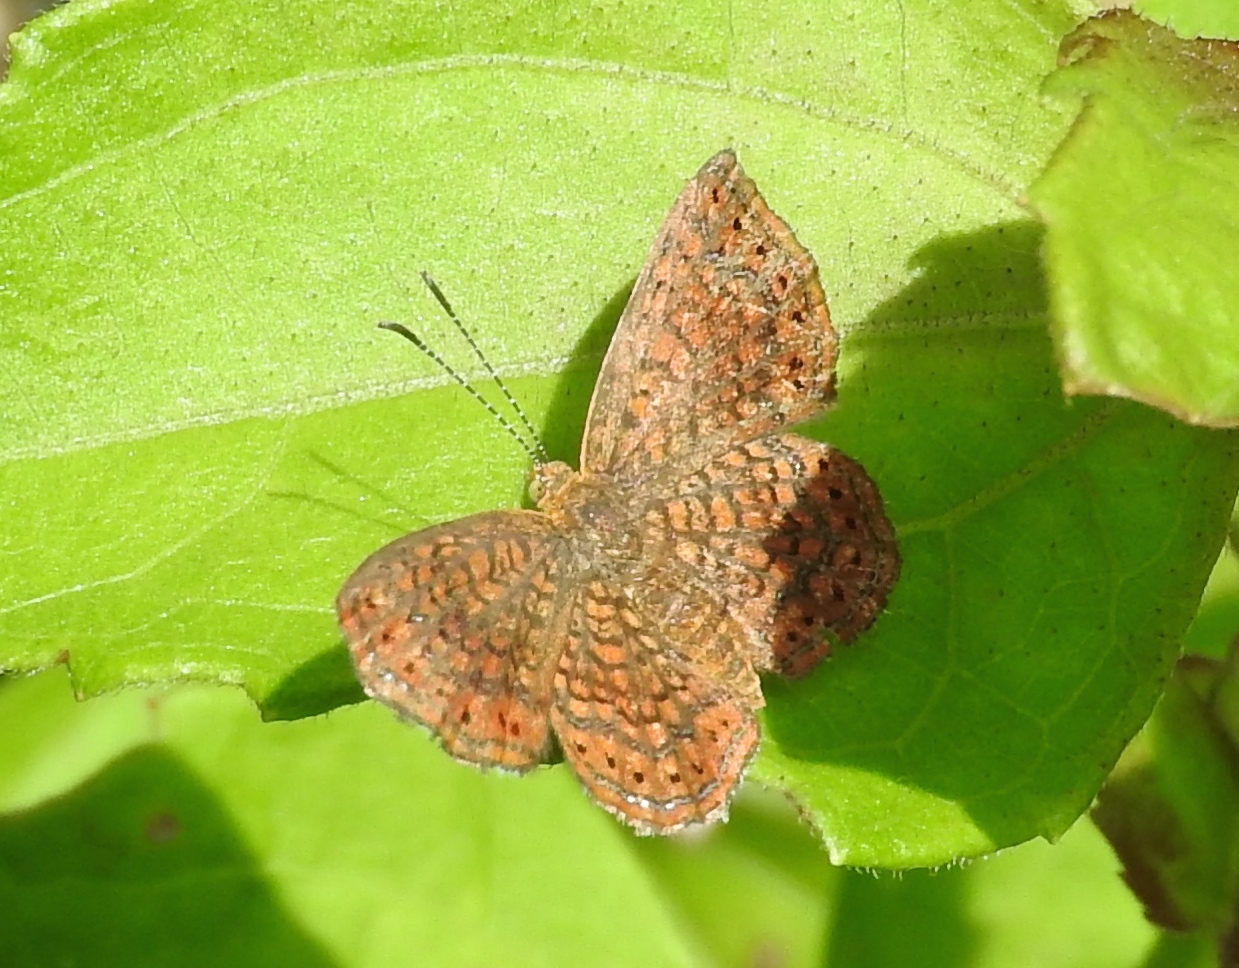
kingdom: Animalia
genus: Calephelis
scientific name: Calephelis
